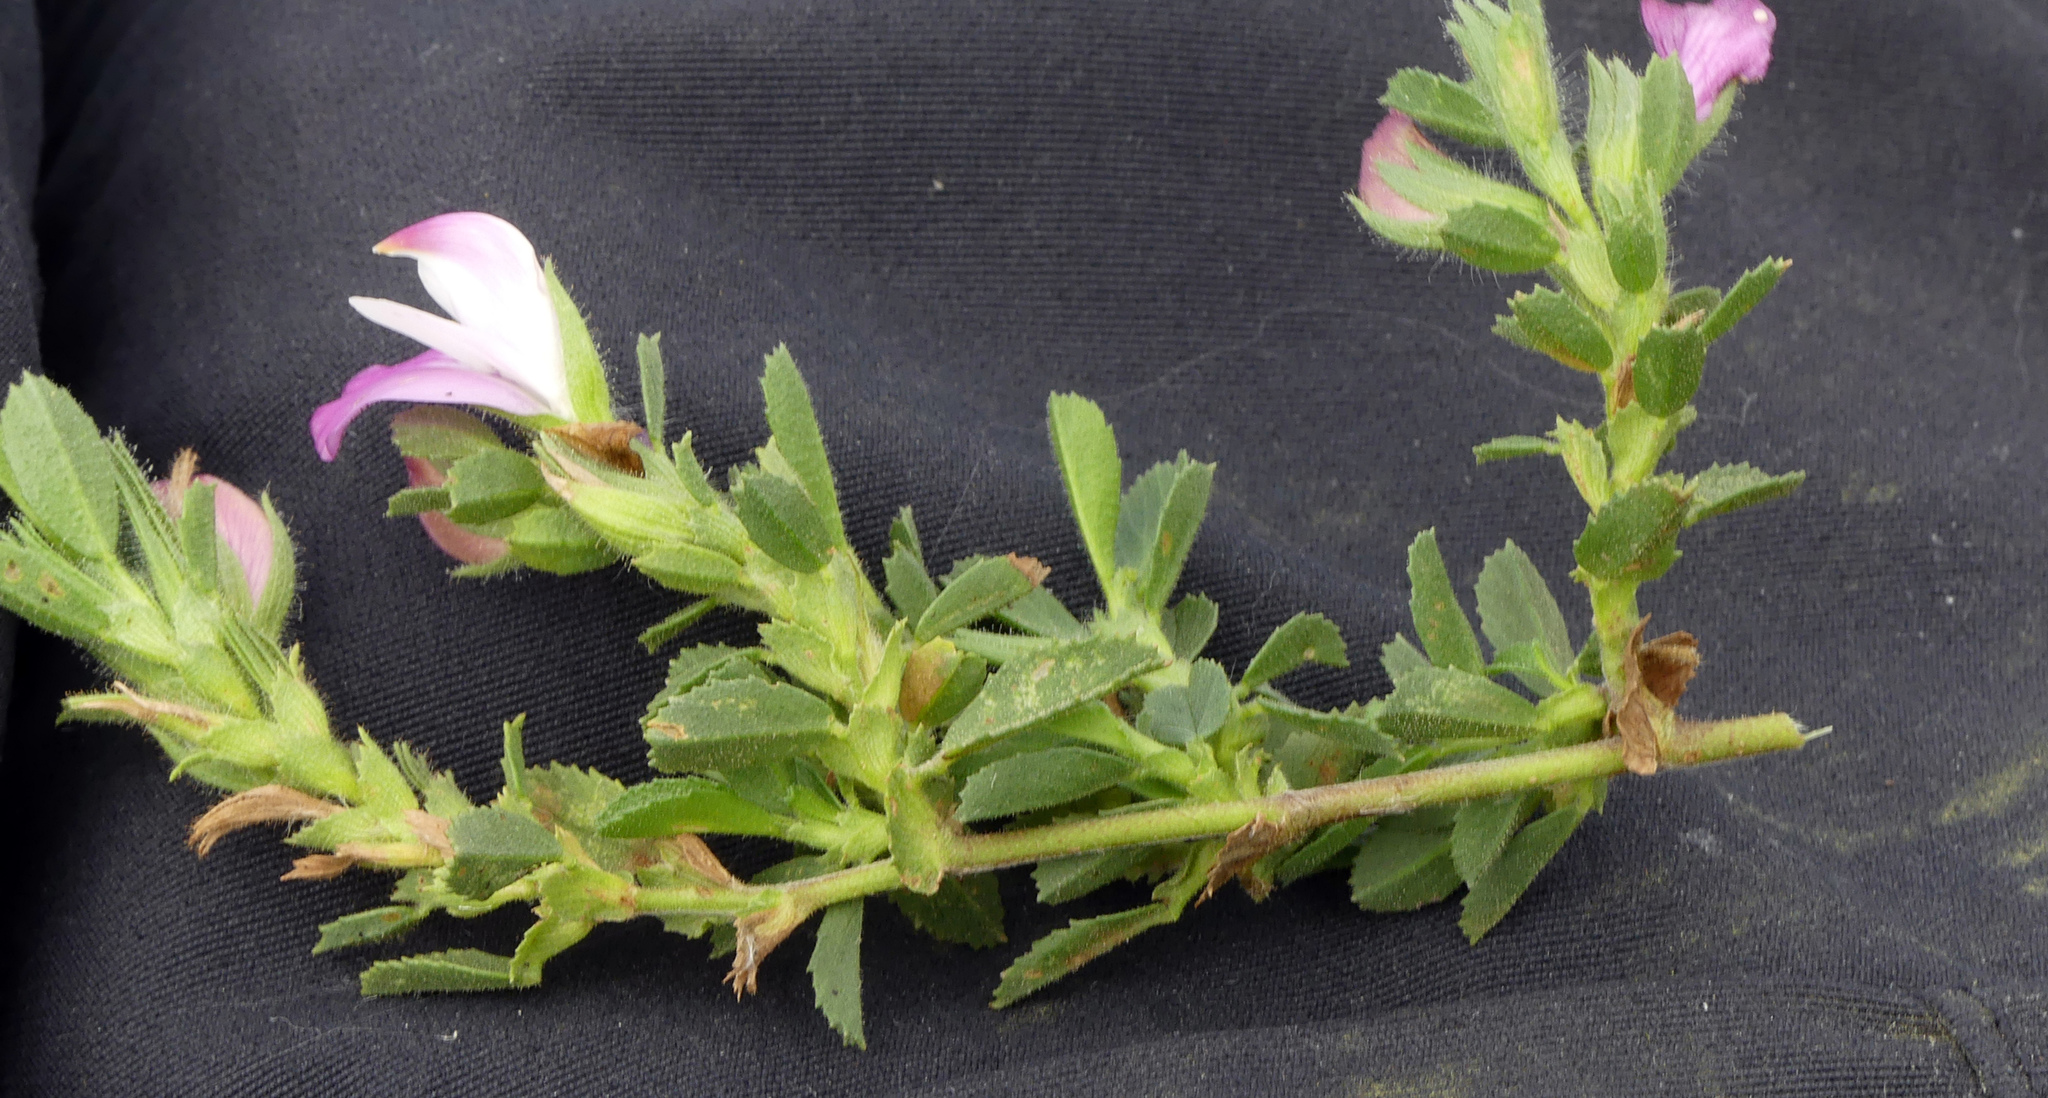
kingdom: Plantae
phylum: Tracheophyta
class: Magnoliopsida
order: Fabales
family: Fabaceae
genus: Ononis
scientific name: Ononis spinosa
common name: Spiny restharrow
